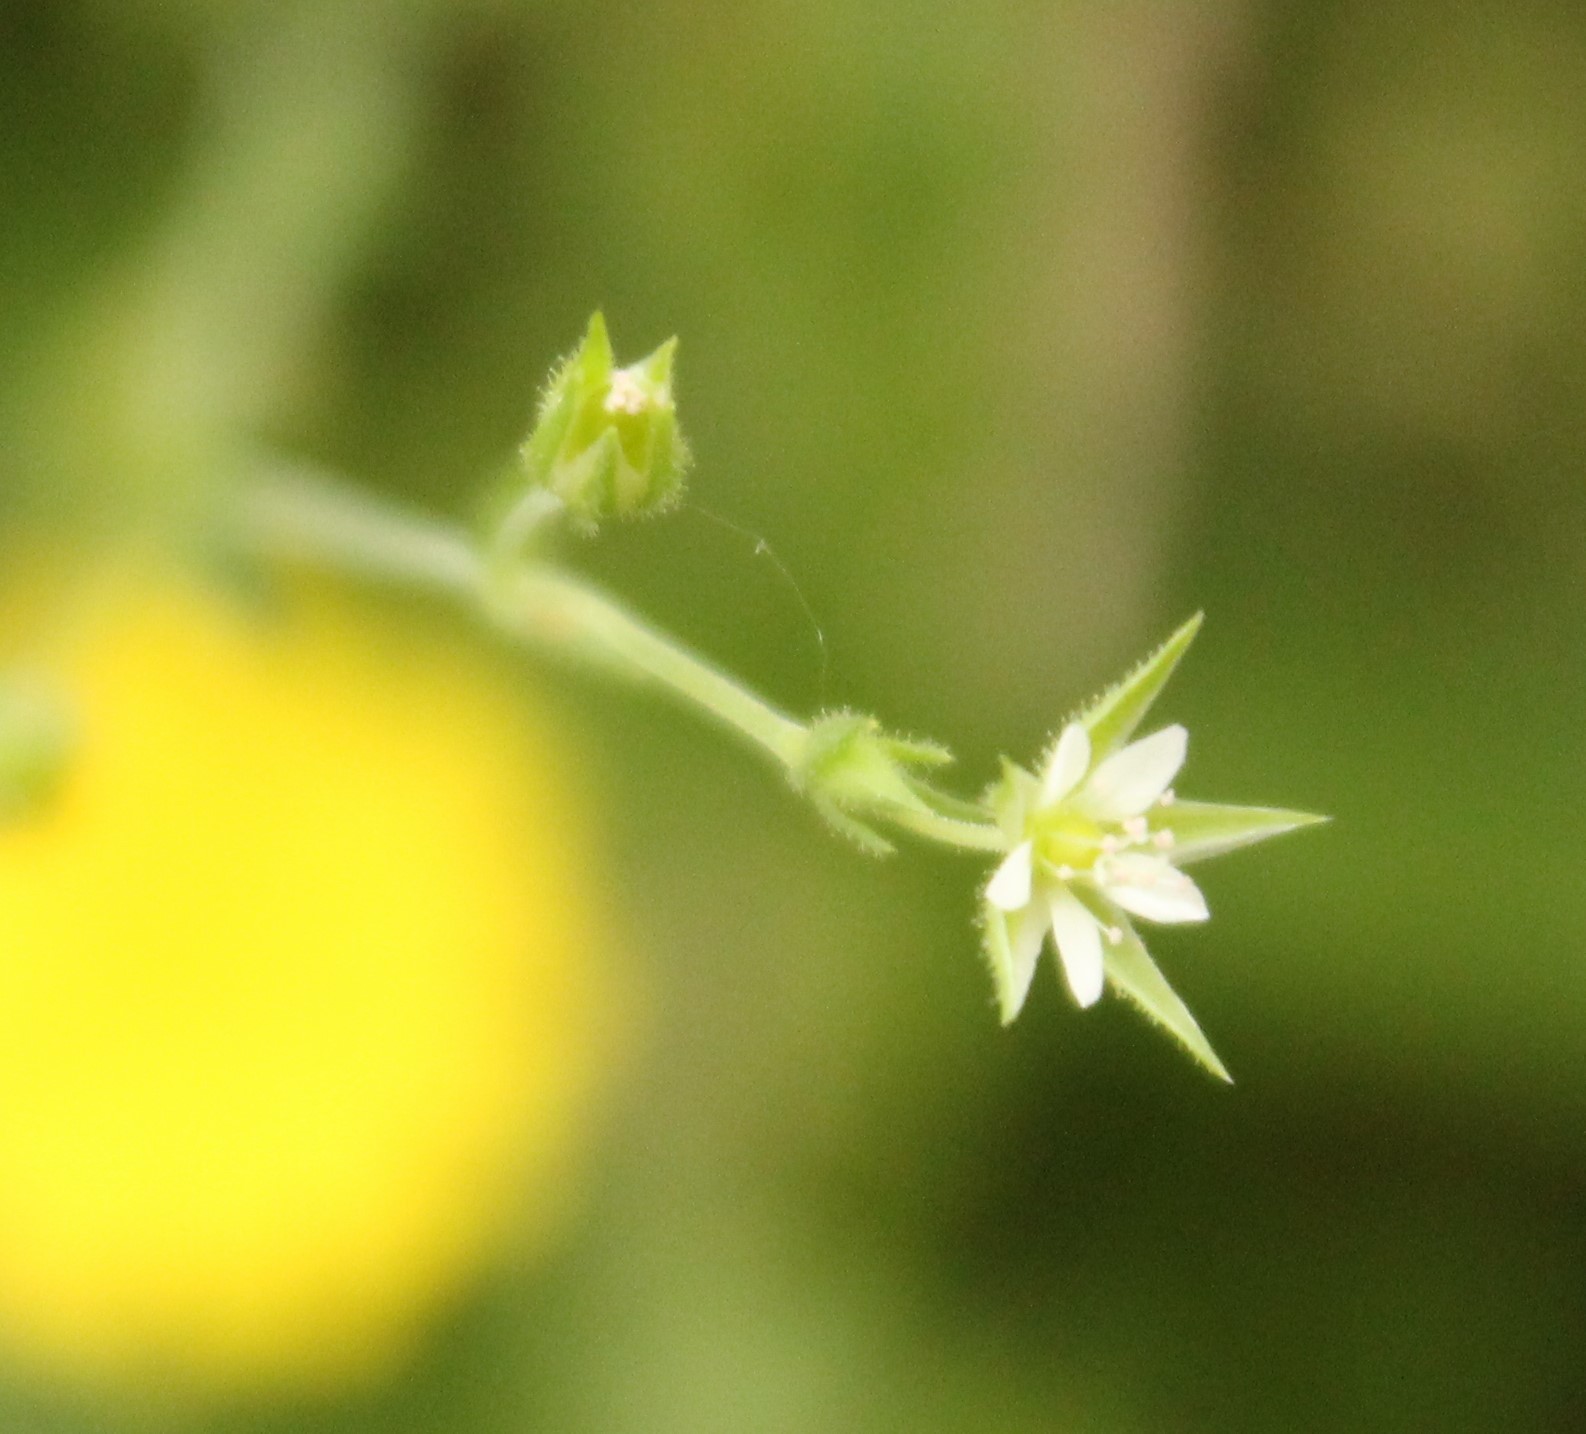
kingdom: Plantae
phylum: Tracheophyta
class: Magnoliopsida
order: Caryophyllales
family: Caryophyllaceae
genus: Arenaria
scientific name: Arenaria serpyllifolia
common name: Thyme-leaved sandwort
